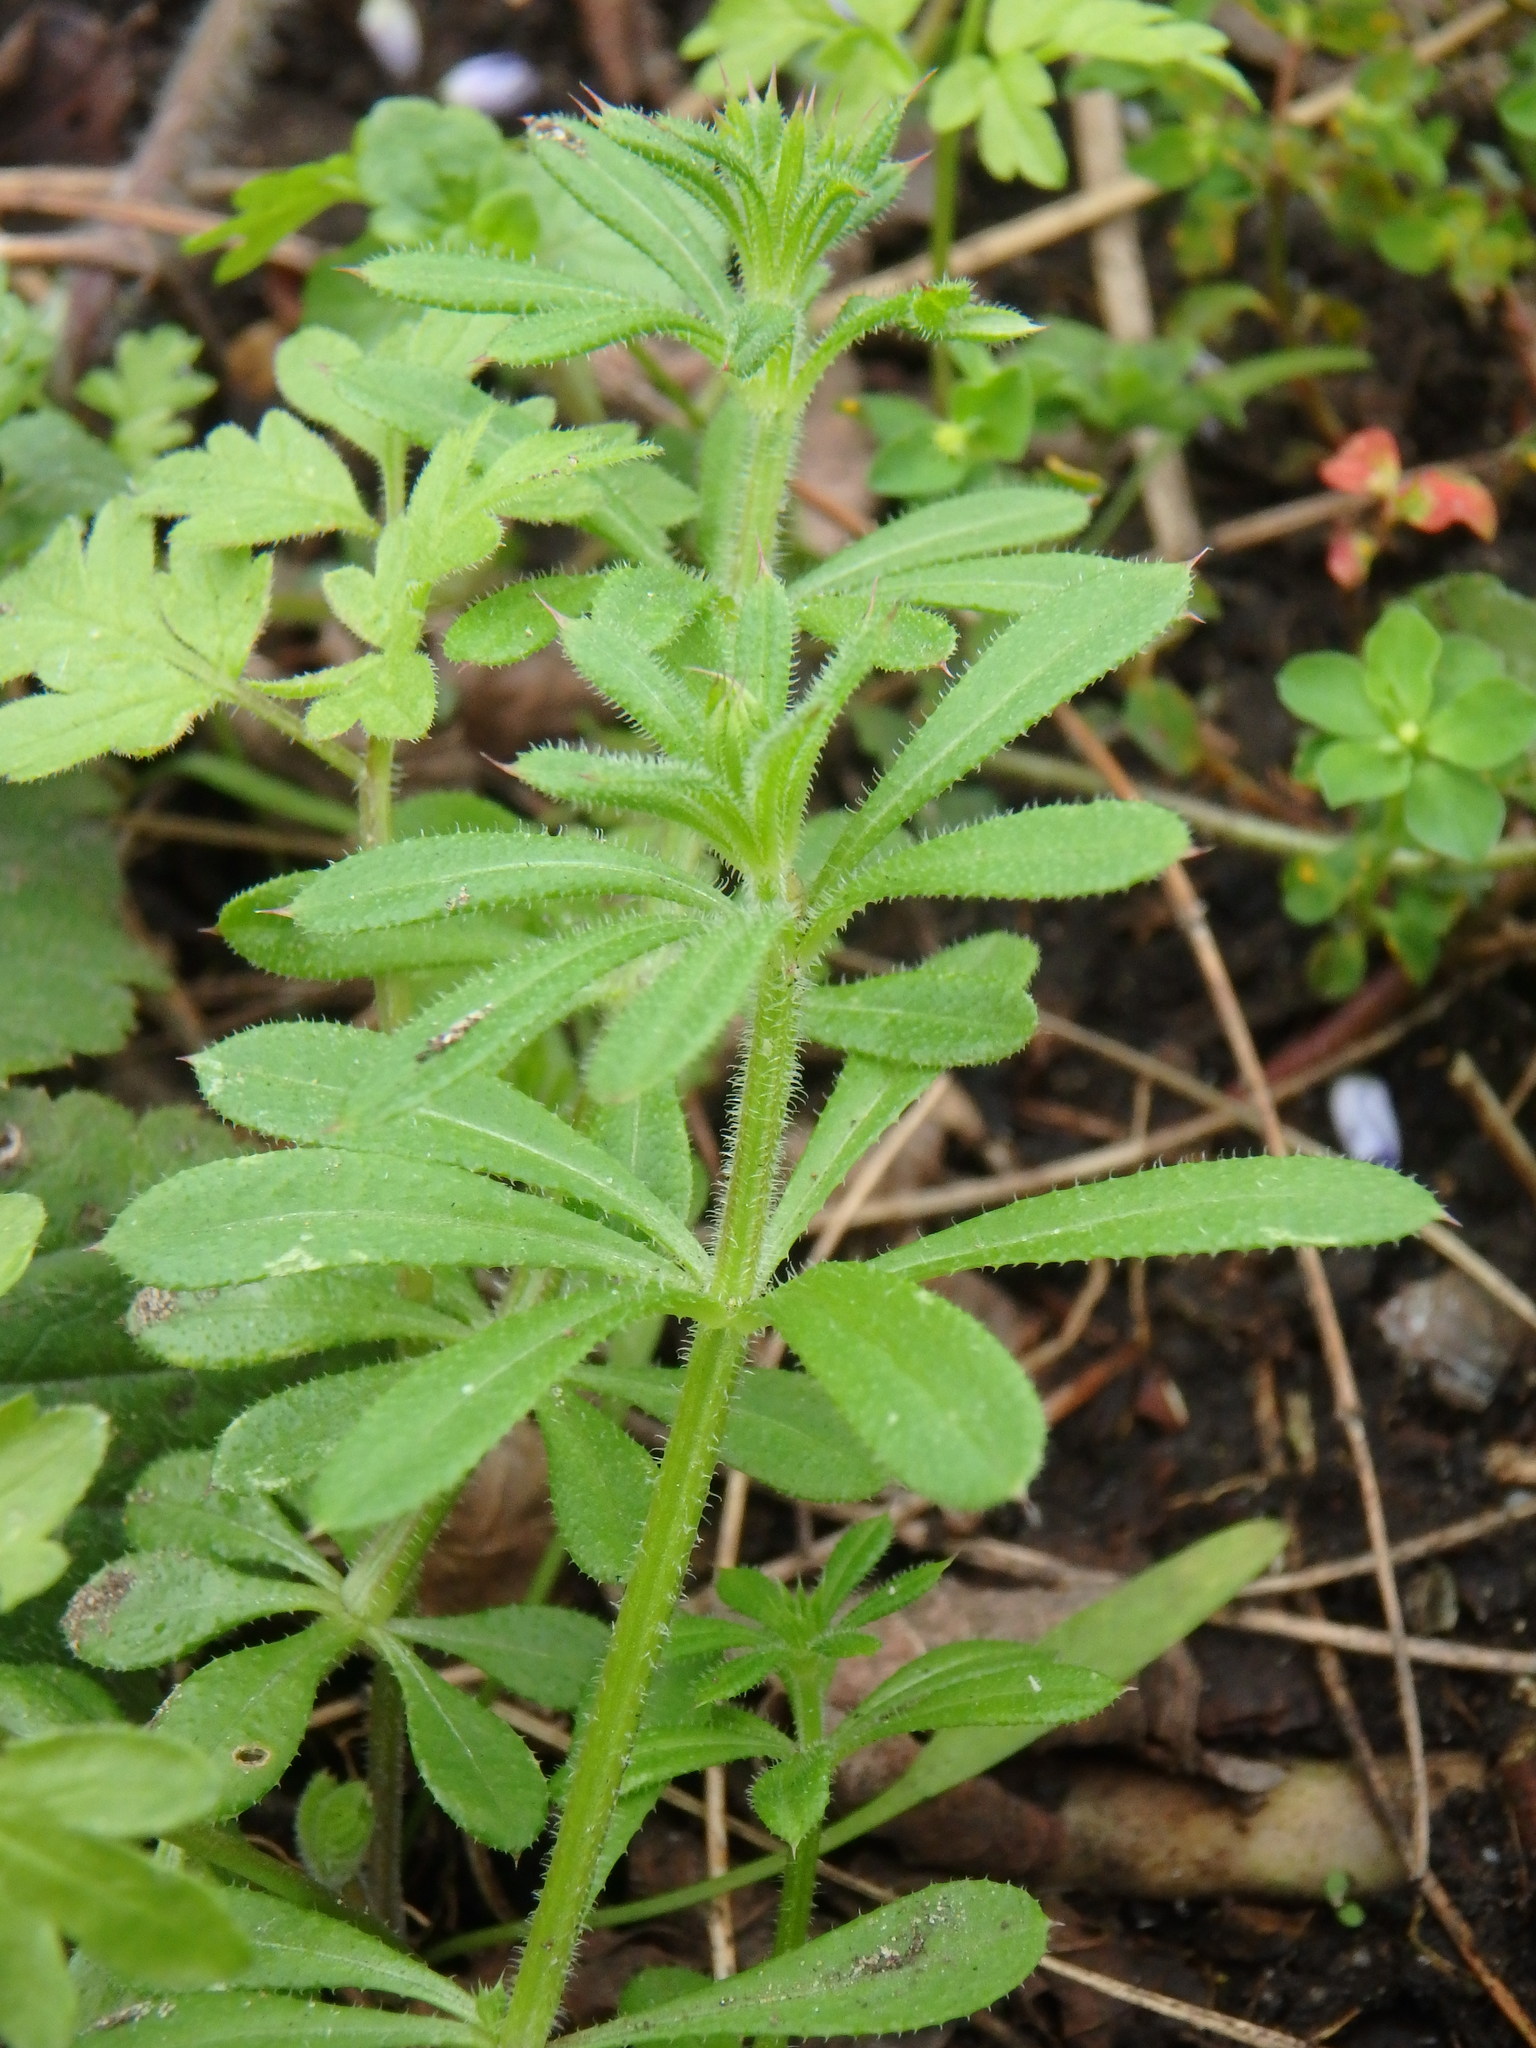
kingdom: Plantae
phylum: Tracheophyta
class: Magnoliopsida
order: Gentianales
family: Rubiaceae
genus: Galium
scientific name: Galium aparine
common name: Cleavers
